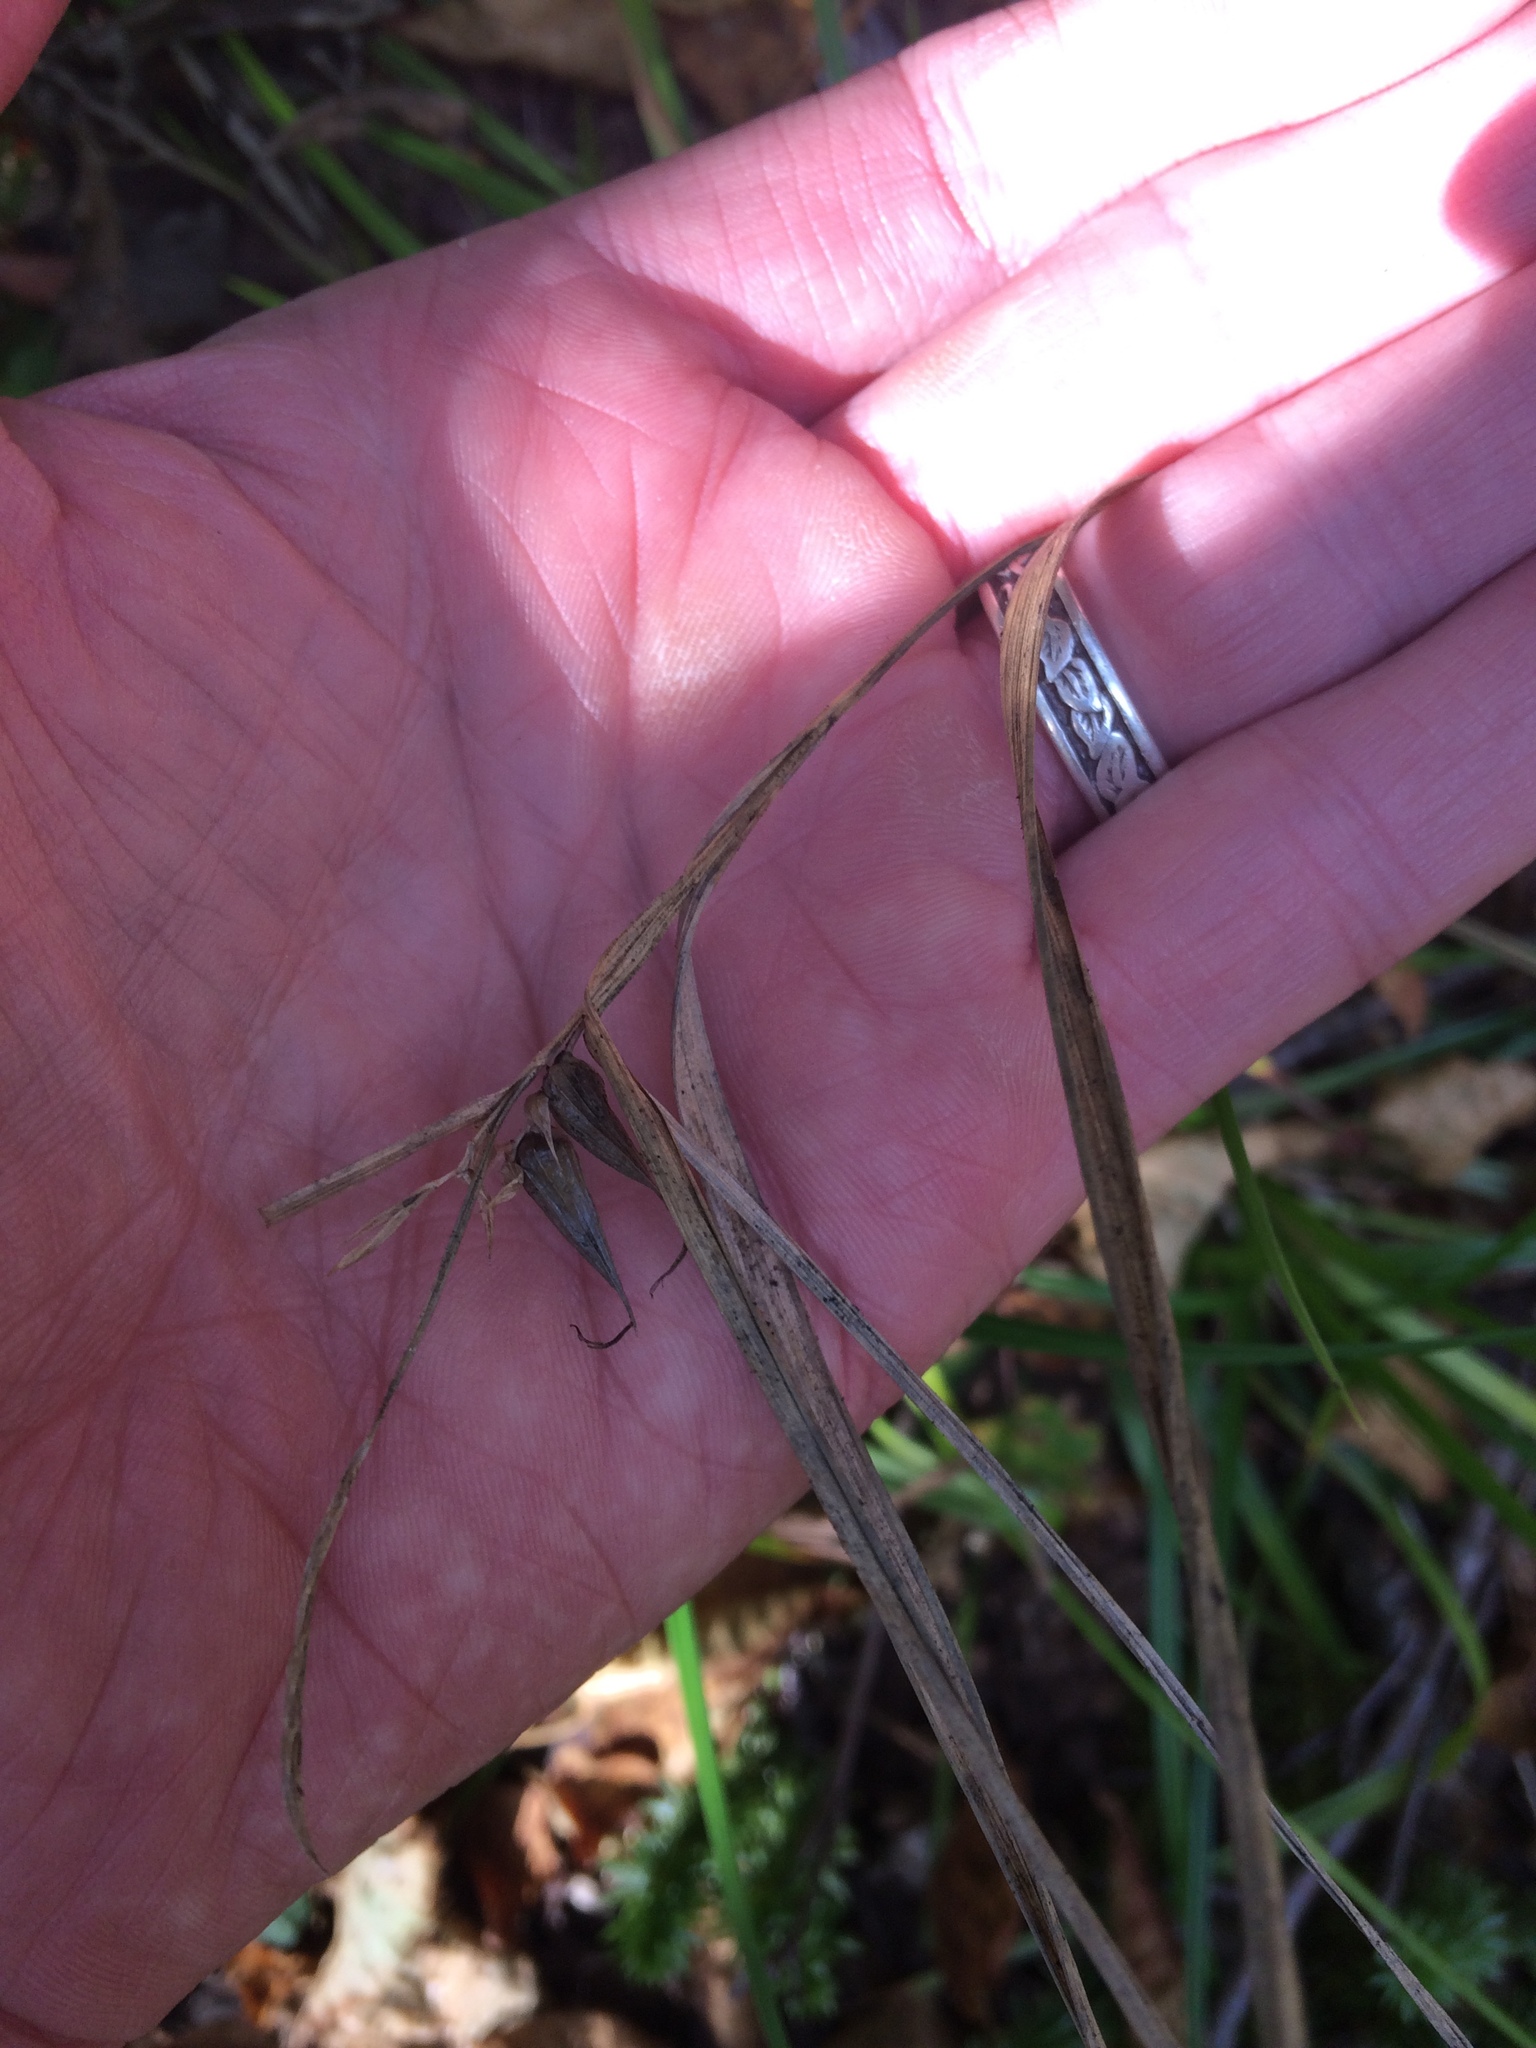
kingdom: Plantae
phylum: Tracheophyta
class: Liliopsida
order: Poales
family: Cyperaceae
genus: Carex
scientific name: Carex intumescens
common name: Greater bladder sedge
